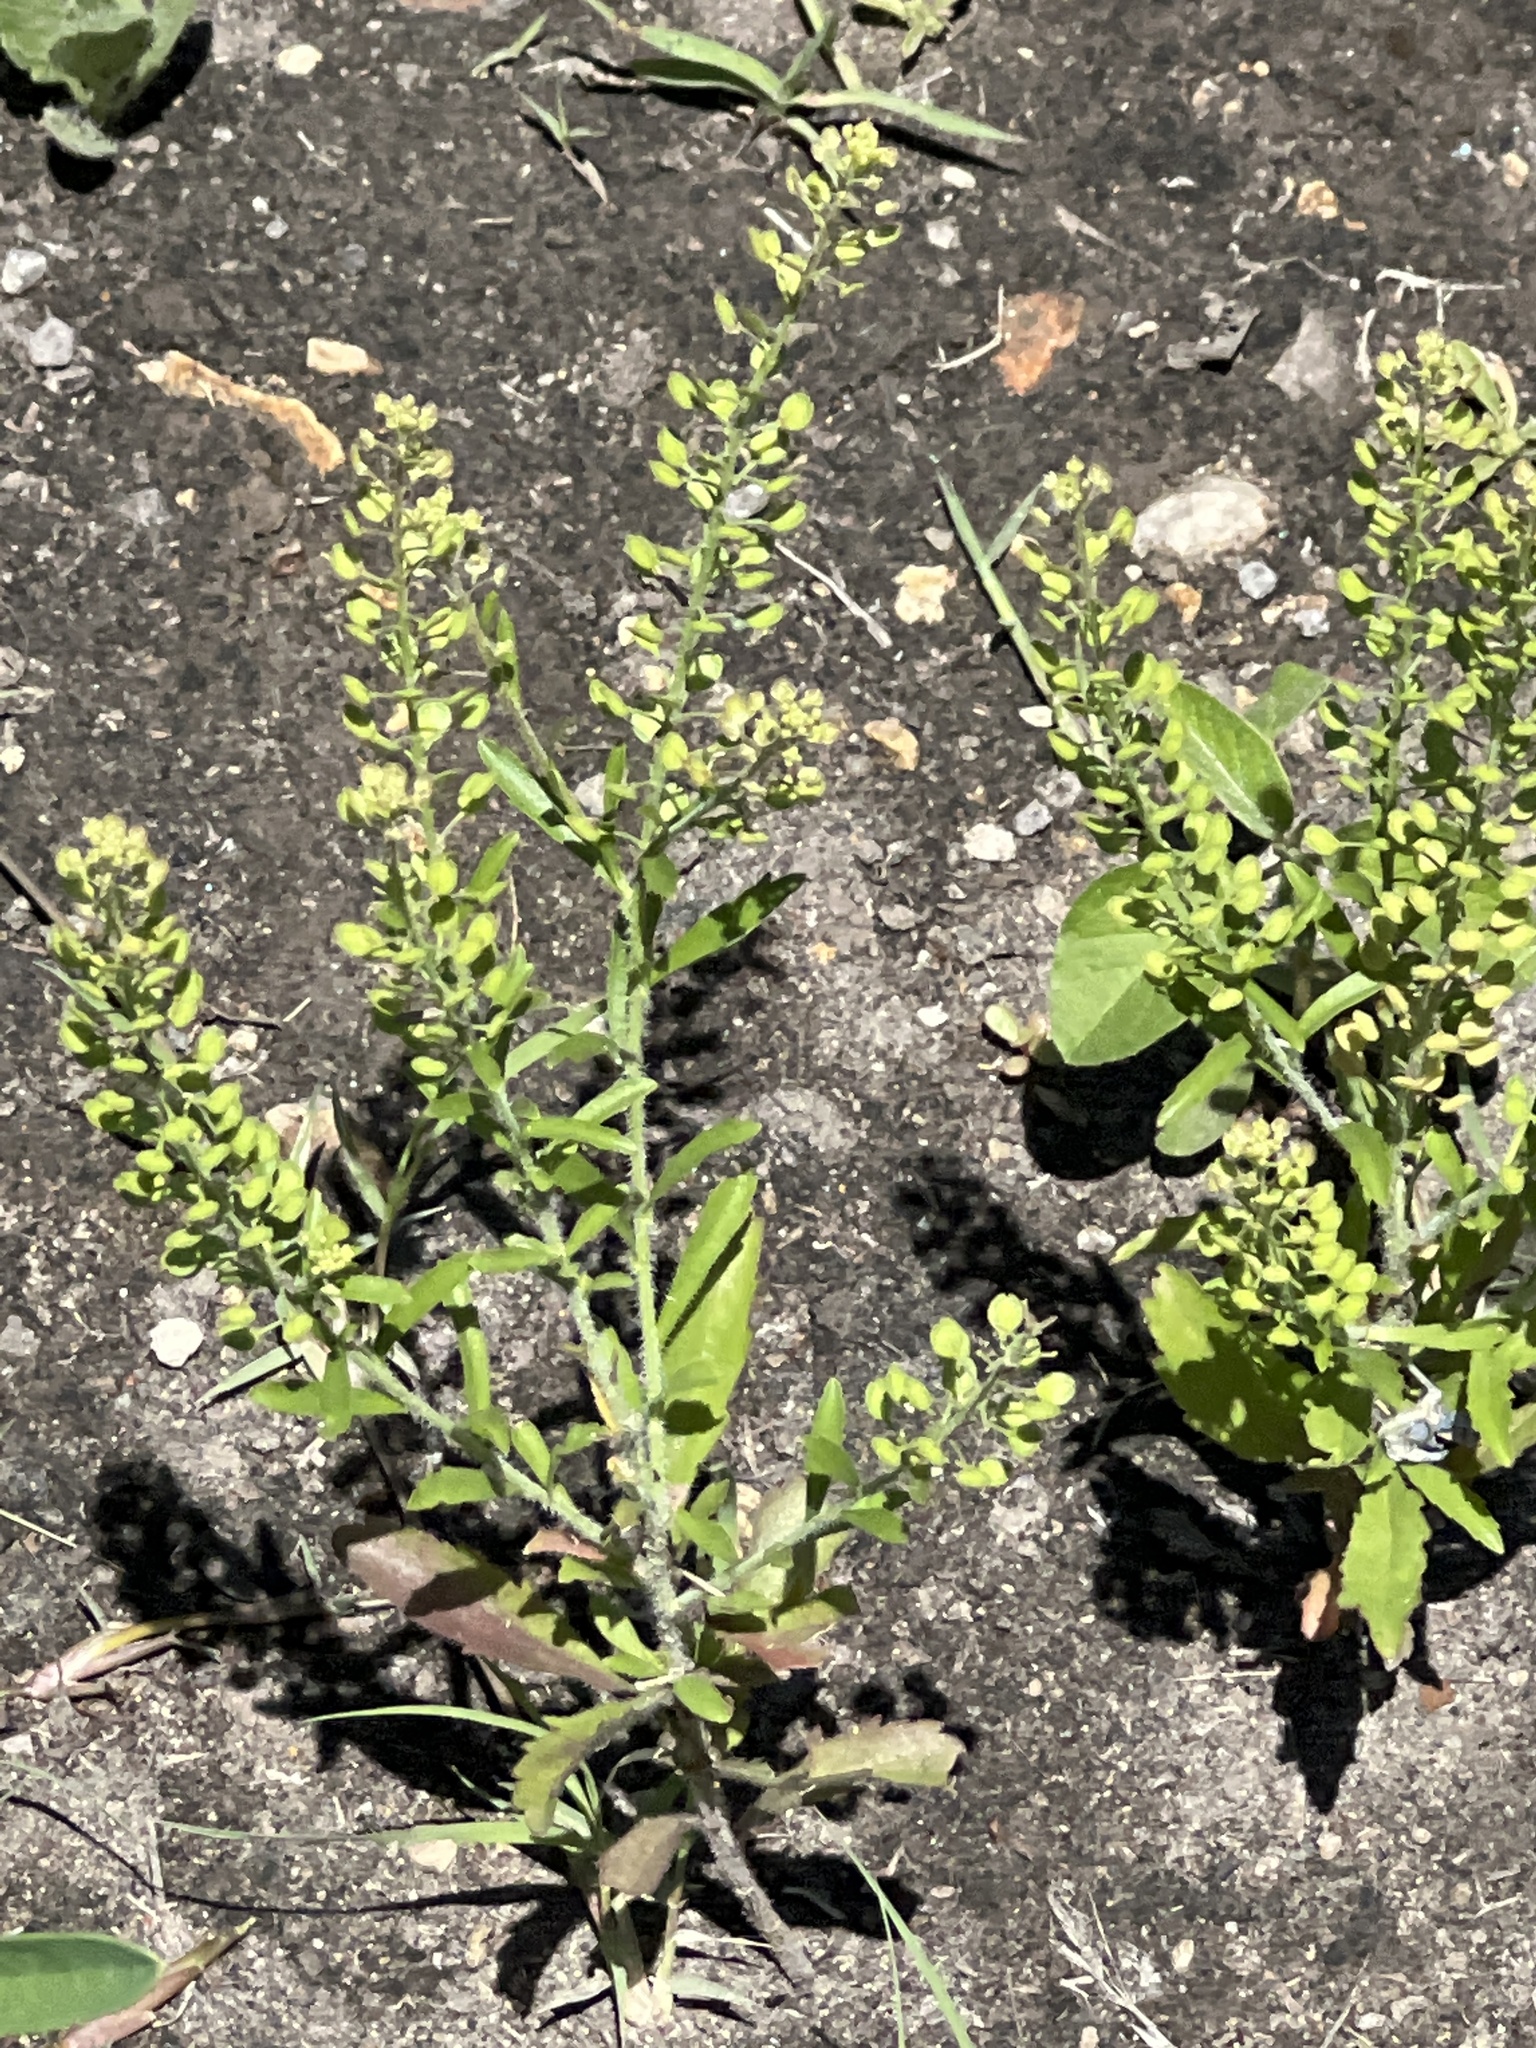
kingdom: Plantae
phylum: Tracheophyta
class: Magnoliopsida
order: Brassicales
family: Brassicaceae
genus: Lepidium
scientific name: Lepidium virginicum
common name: Least pepperwort
